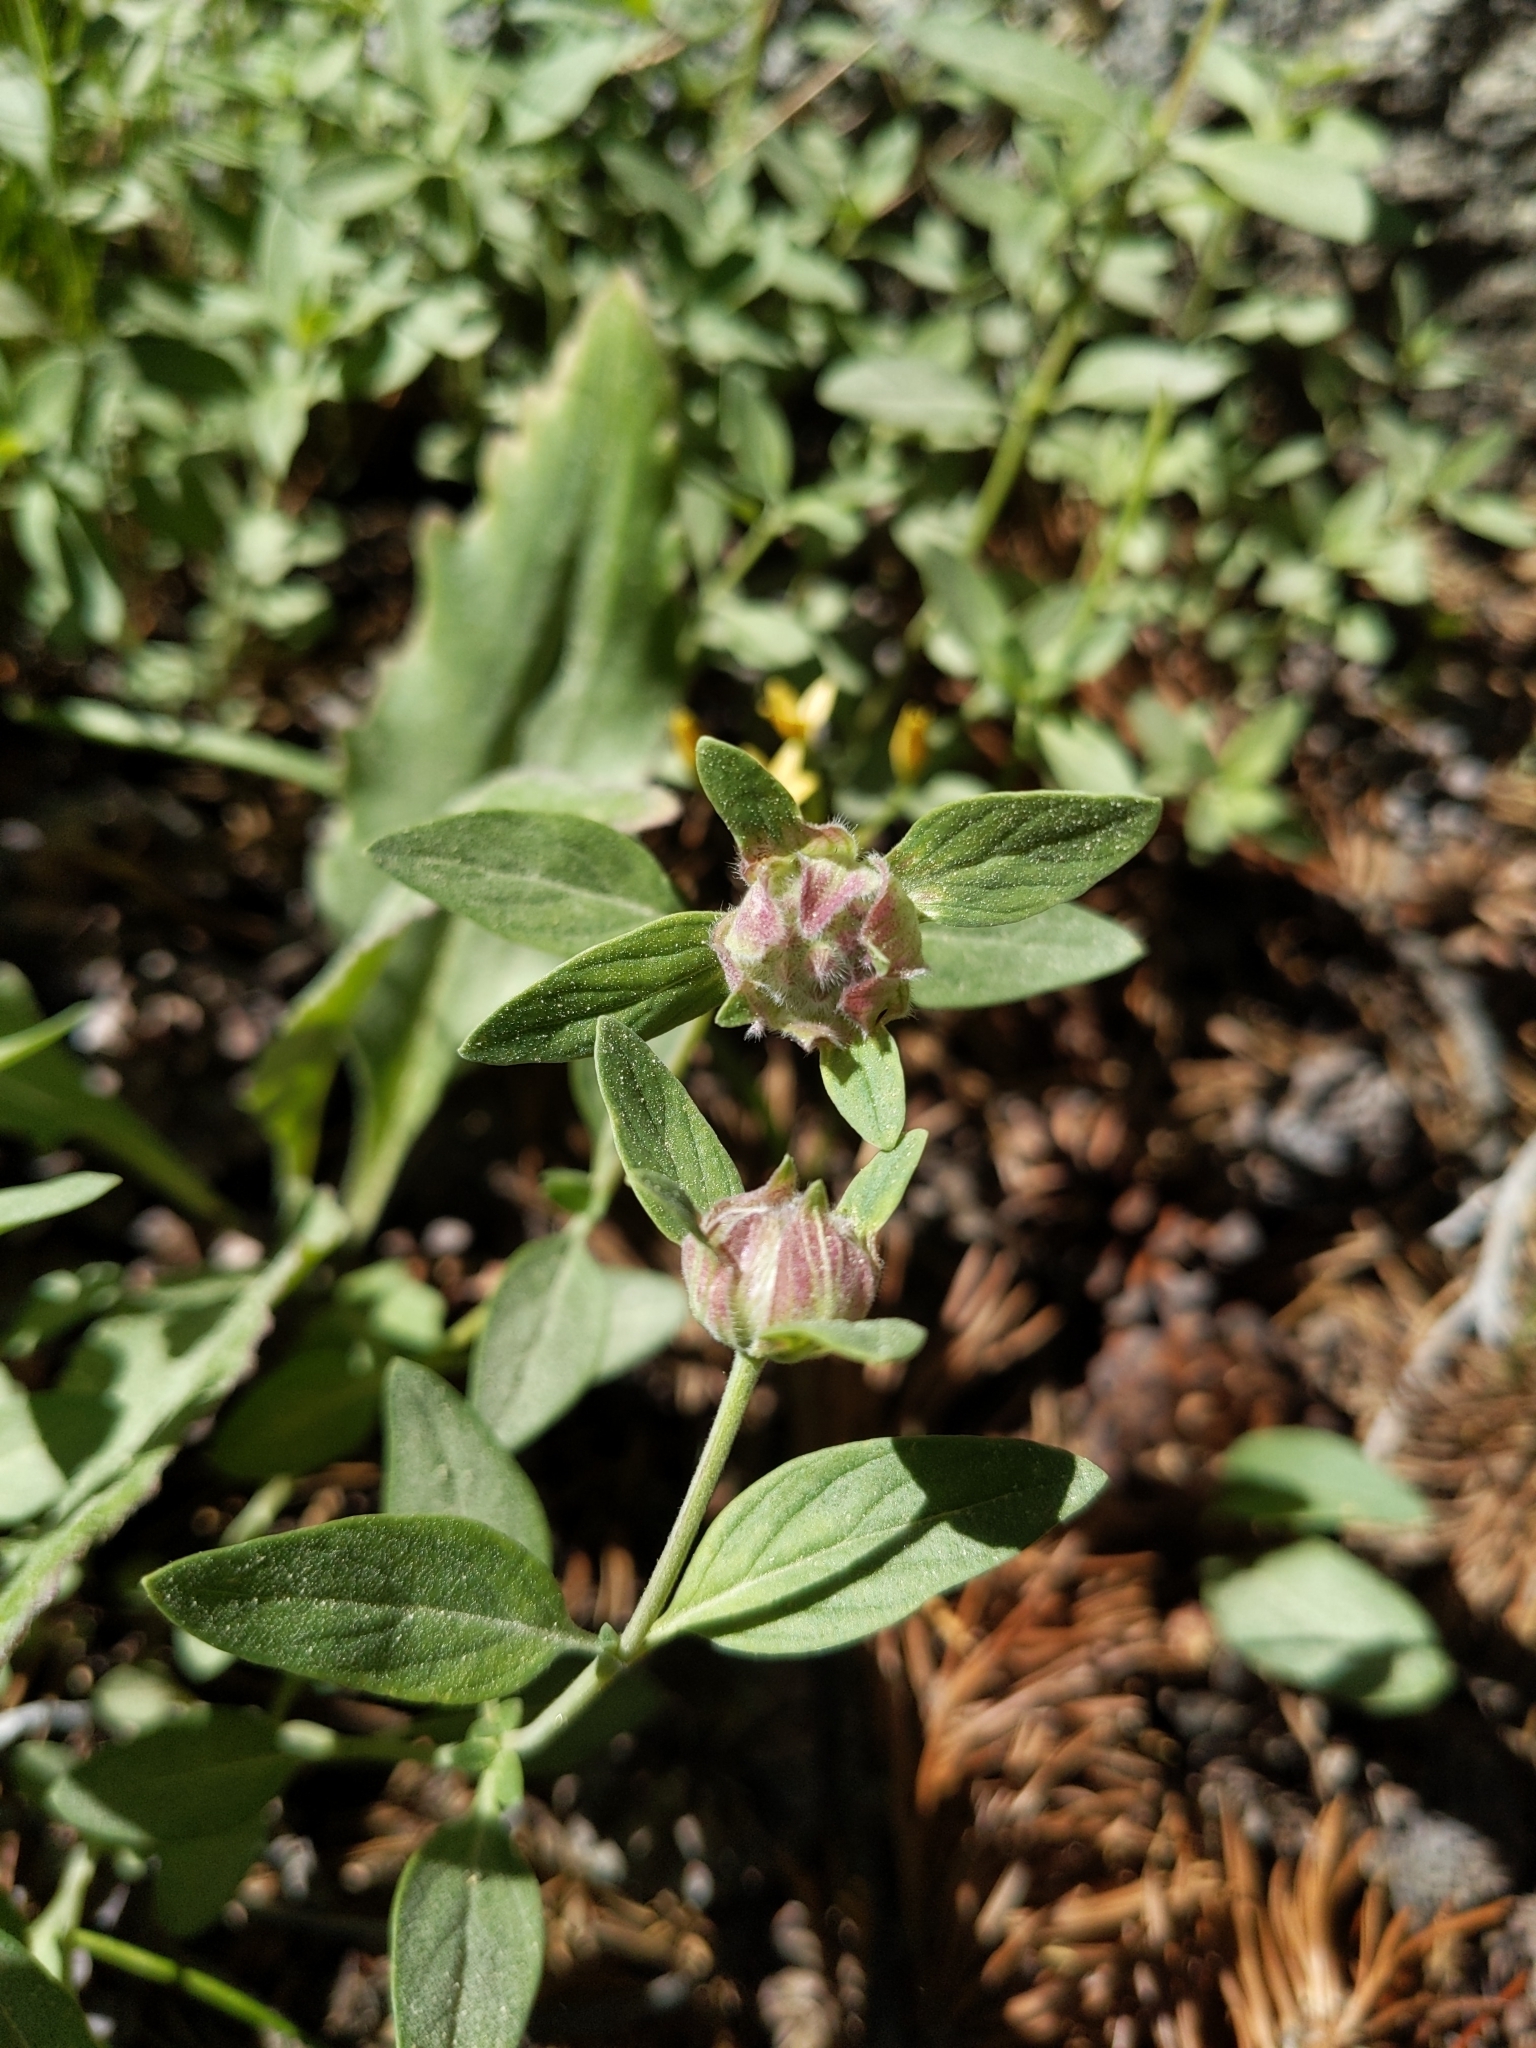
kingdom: Plantae
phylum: Tracheophyta
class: Magnoliopsida
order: Lamiales
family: Lamiaceae
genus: Monardella
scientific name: Monardella odoratissima
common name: Pacific monardella
